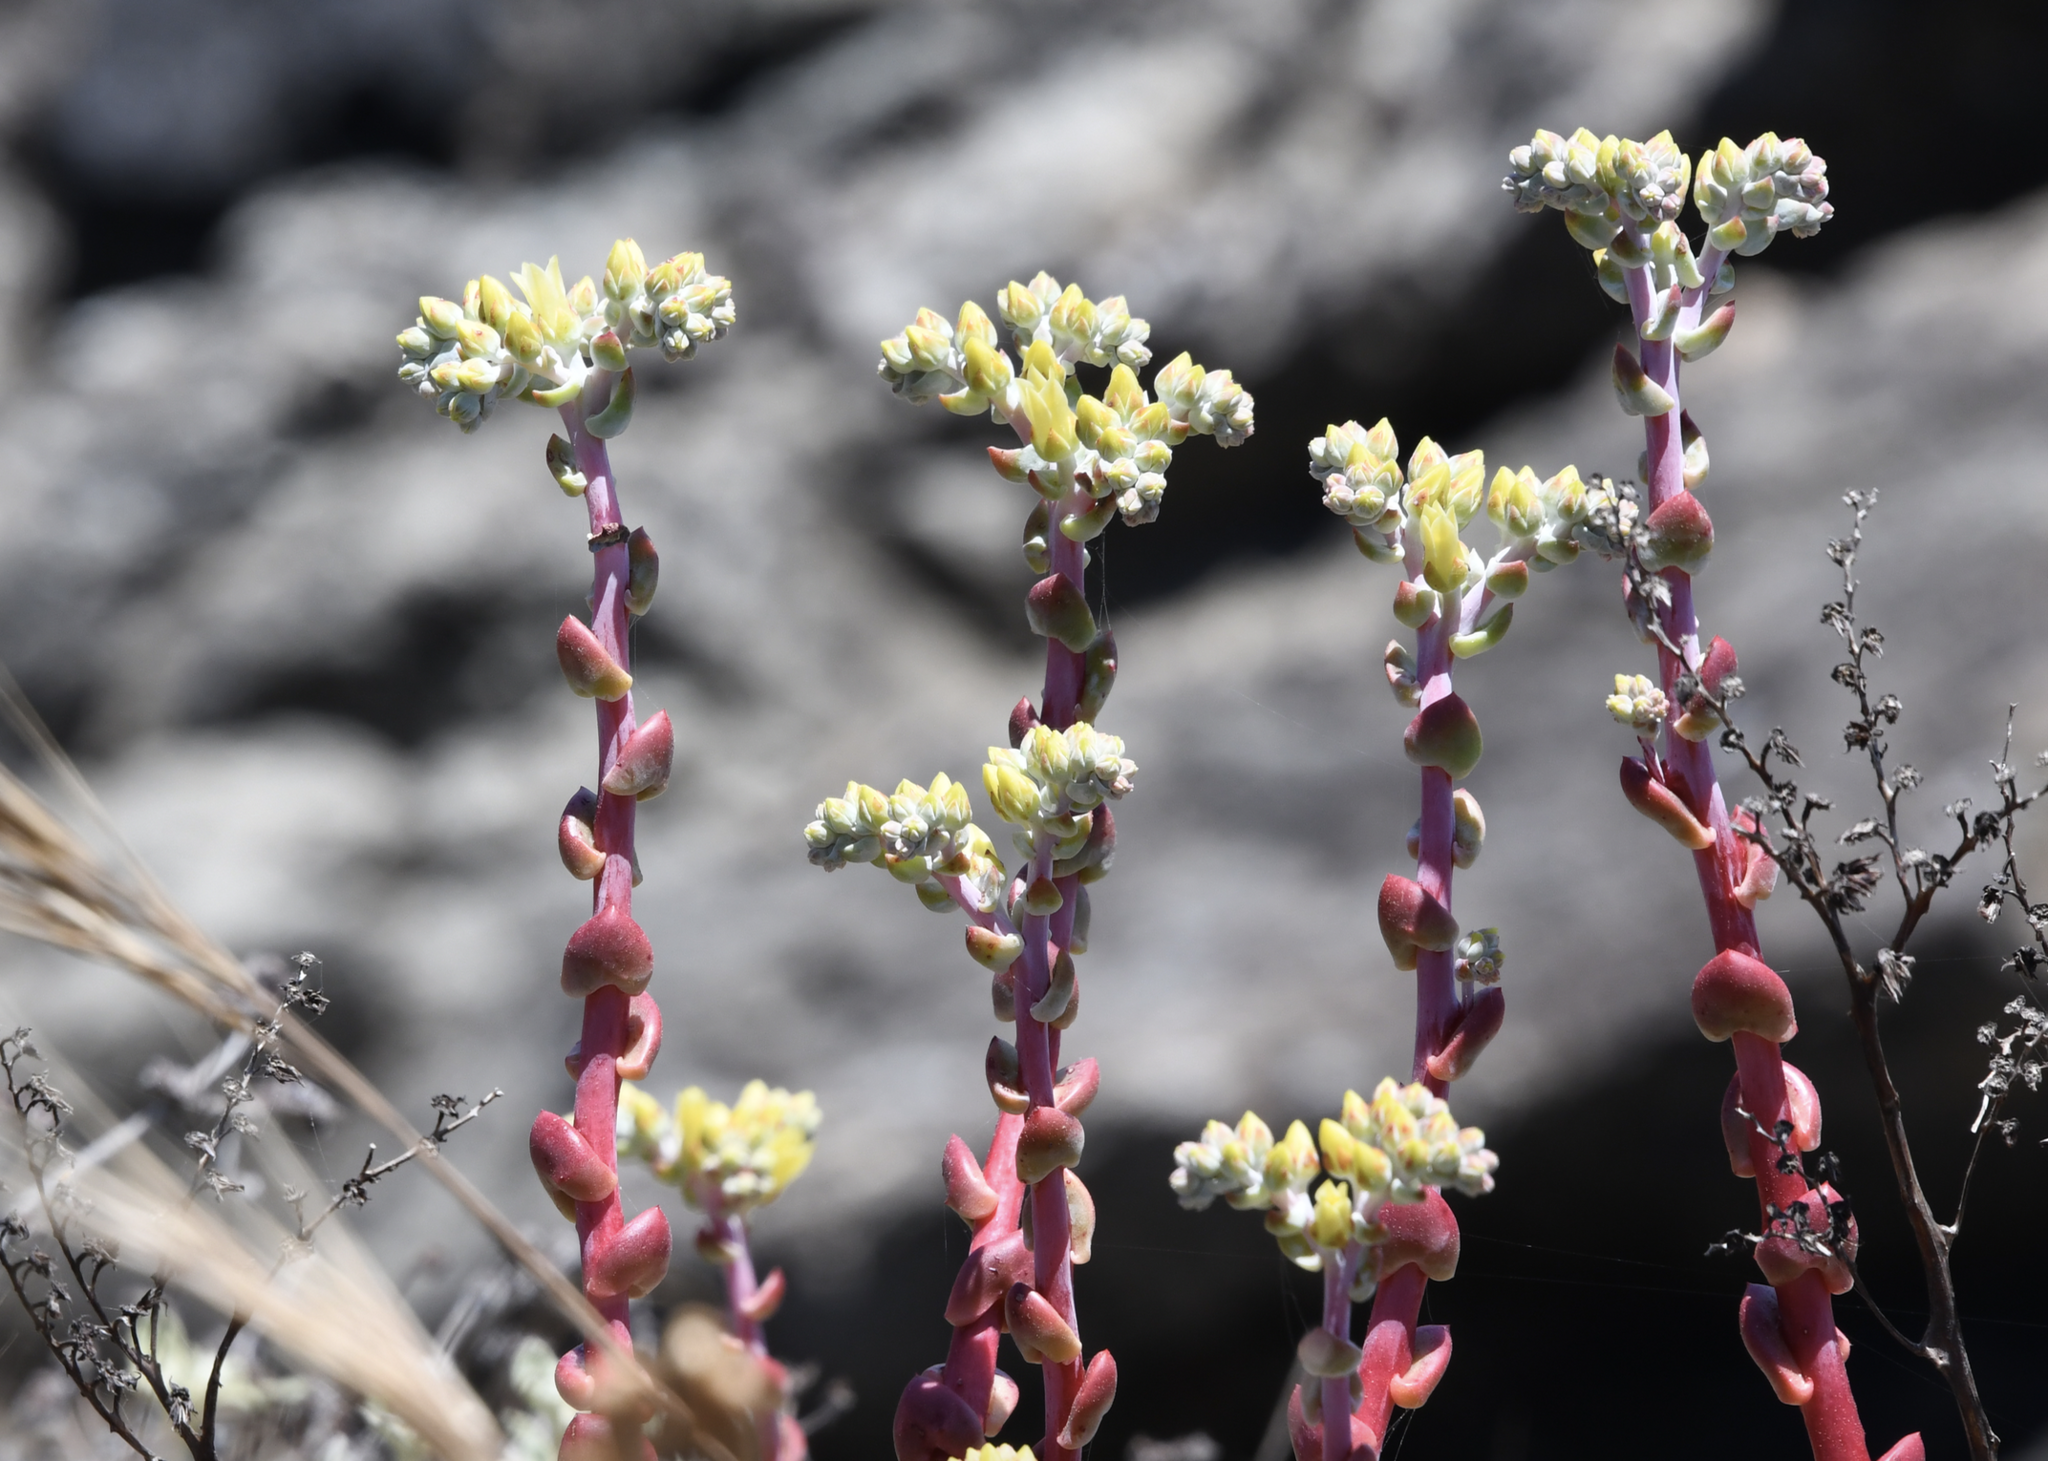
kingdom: Plantae
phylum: Tracheophyta
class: Magnoliopsida
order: Saxifragales
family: Crassulaceae
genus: Dudleya
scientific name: Dudleya farinosa
